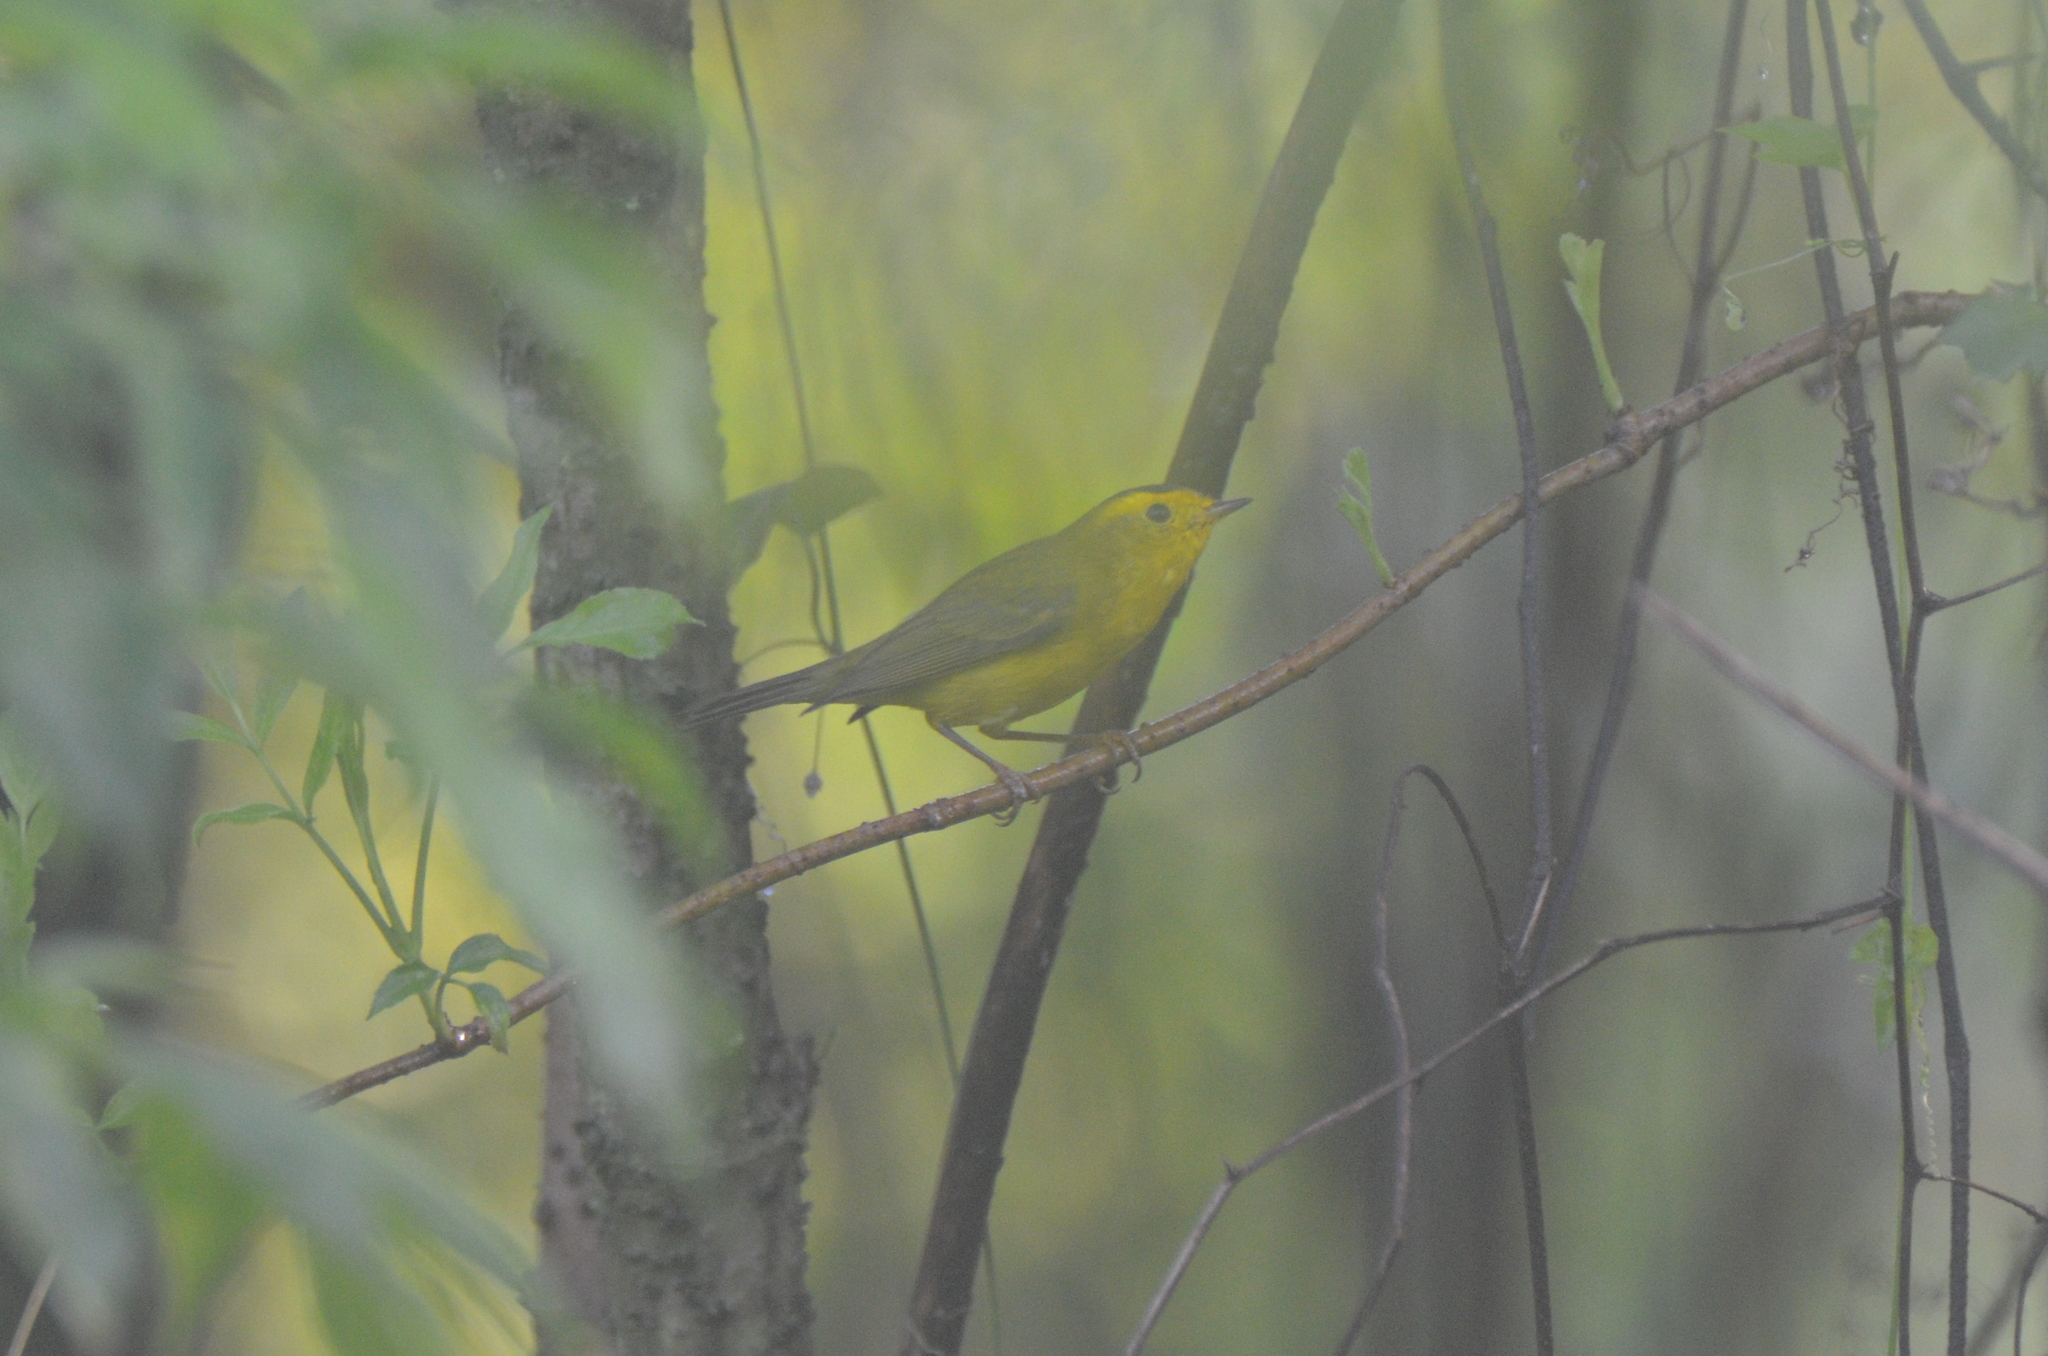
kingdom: Animalia
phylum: Chordata
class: Aves
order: Passeriformes
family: Parulidae
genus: Cardellina
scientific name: Cardellina pusilla
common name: Wilson's warbler
